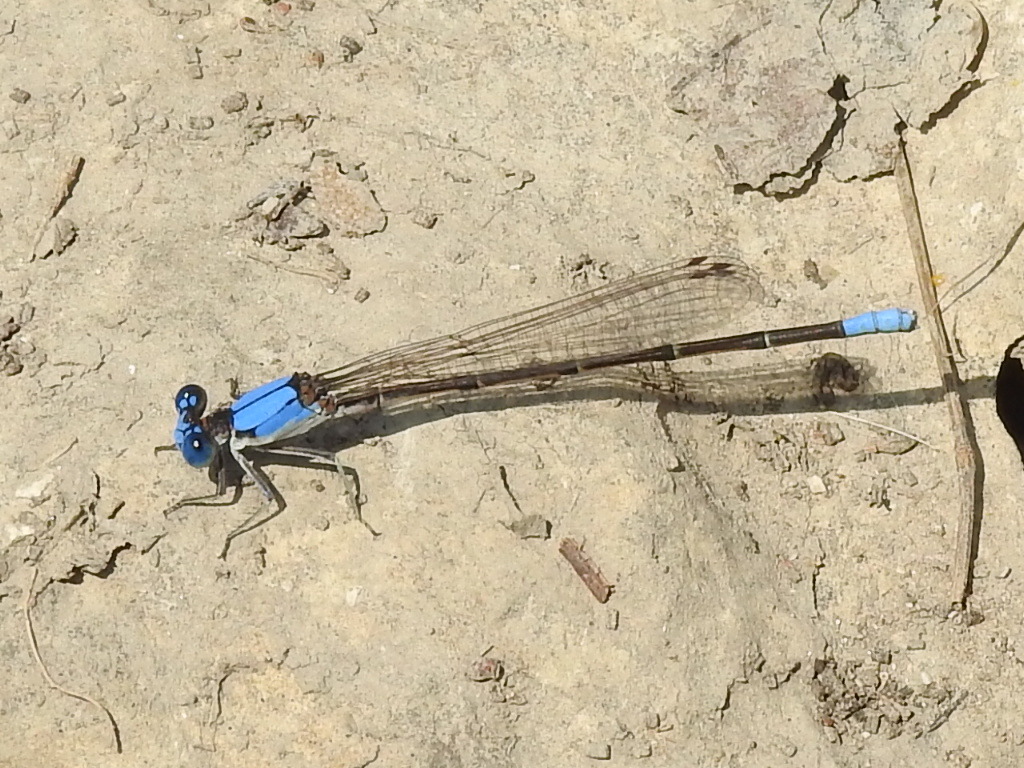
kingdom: Animalia
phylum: Arthropoda
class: Insecta
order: Odonata
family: Coenagrionidae
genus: Argia
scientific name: Argia apicalis
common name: Blue-fronted dancer
